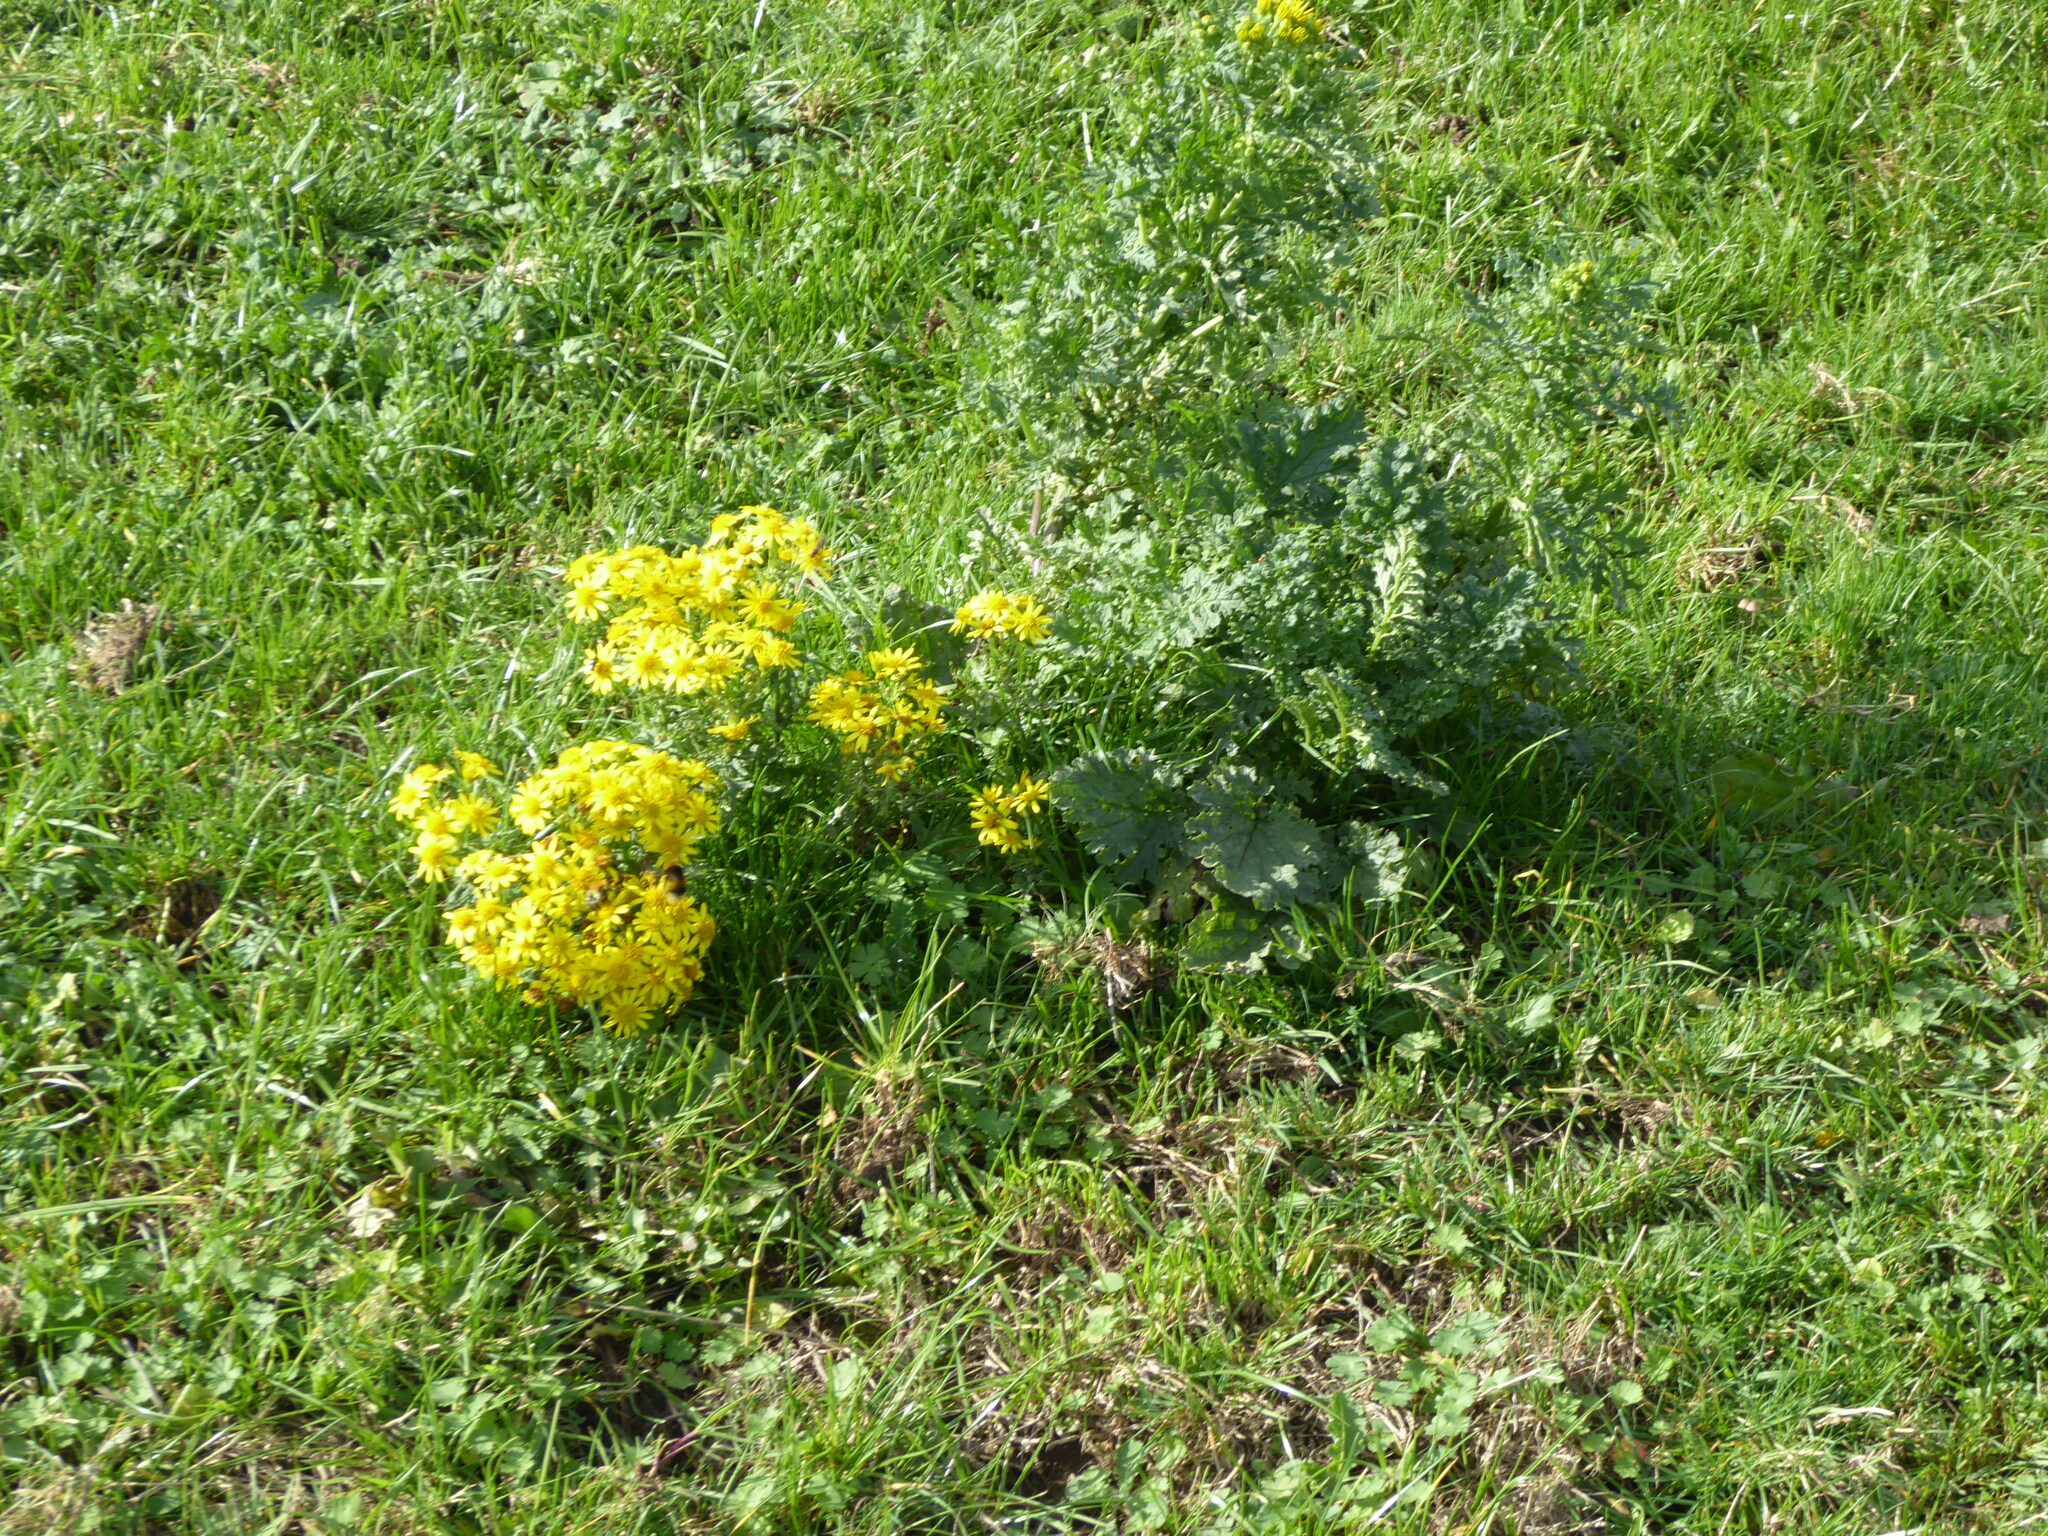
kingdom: Plantae
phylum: Tracheophyta
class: Magnoliopsida
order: Asterales
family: Asteraceae
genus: Jacobaea
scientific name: Jacobaea vulgaris
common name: Stinking willie
